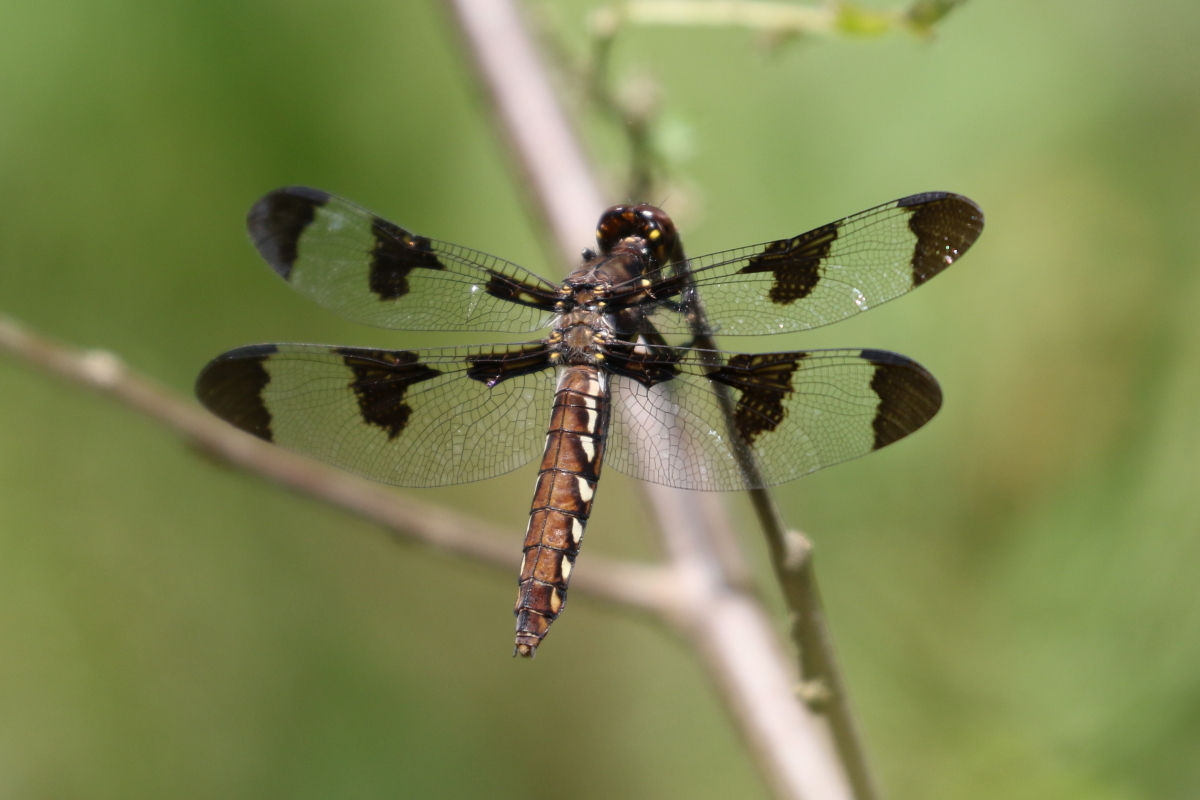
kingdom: Animalia
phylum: Arthropoda
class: Insecta
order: Odonata
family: Libellulidae
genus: Plathemis
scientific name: Plathemis lydia
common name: Common whitetail
